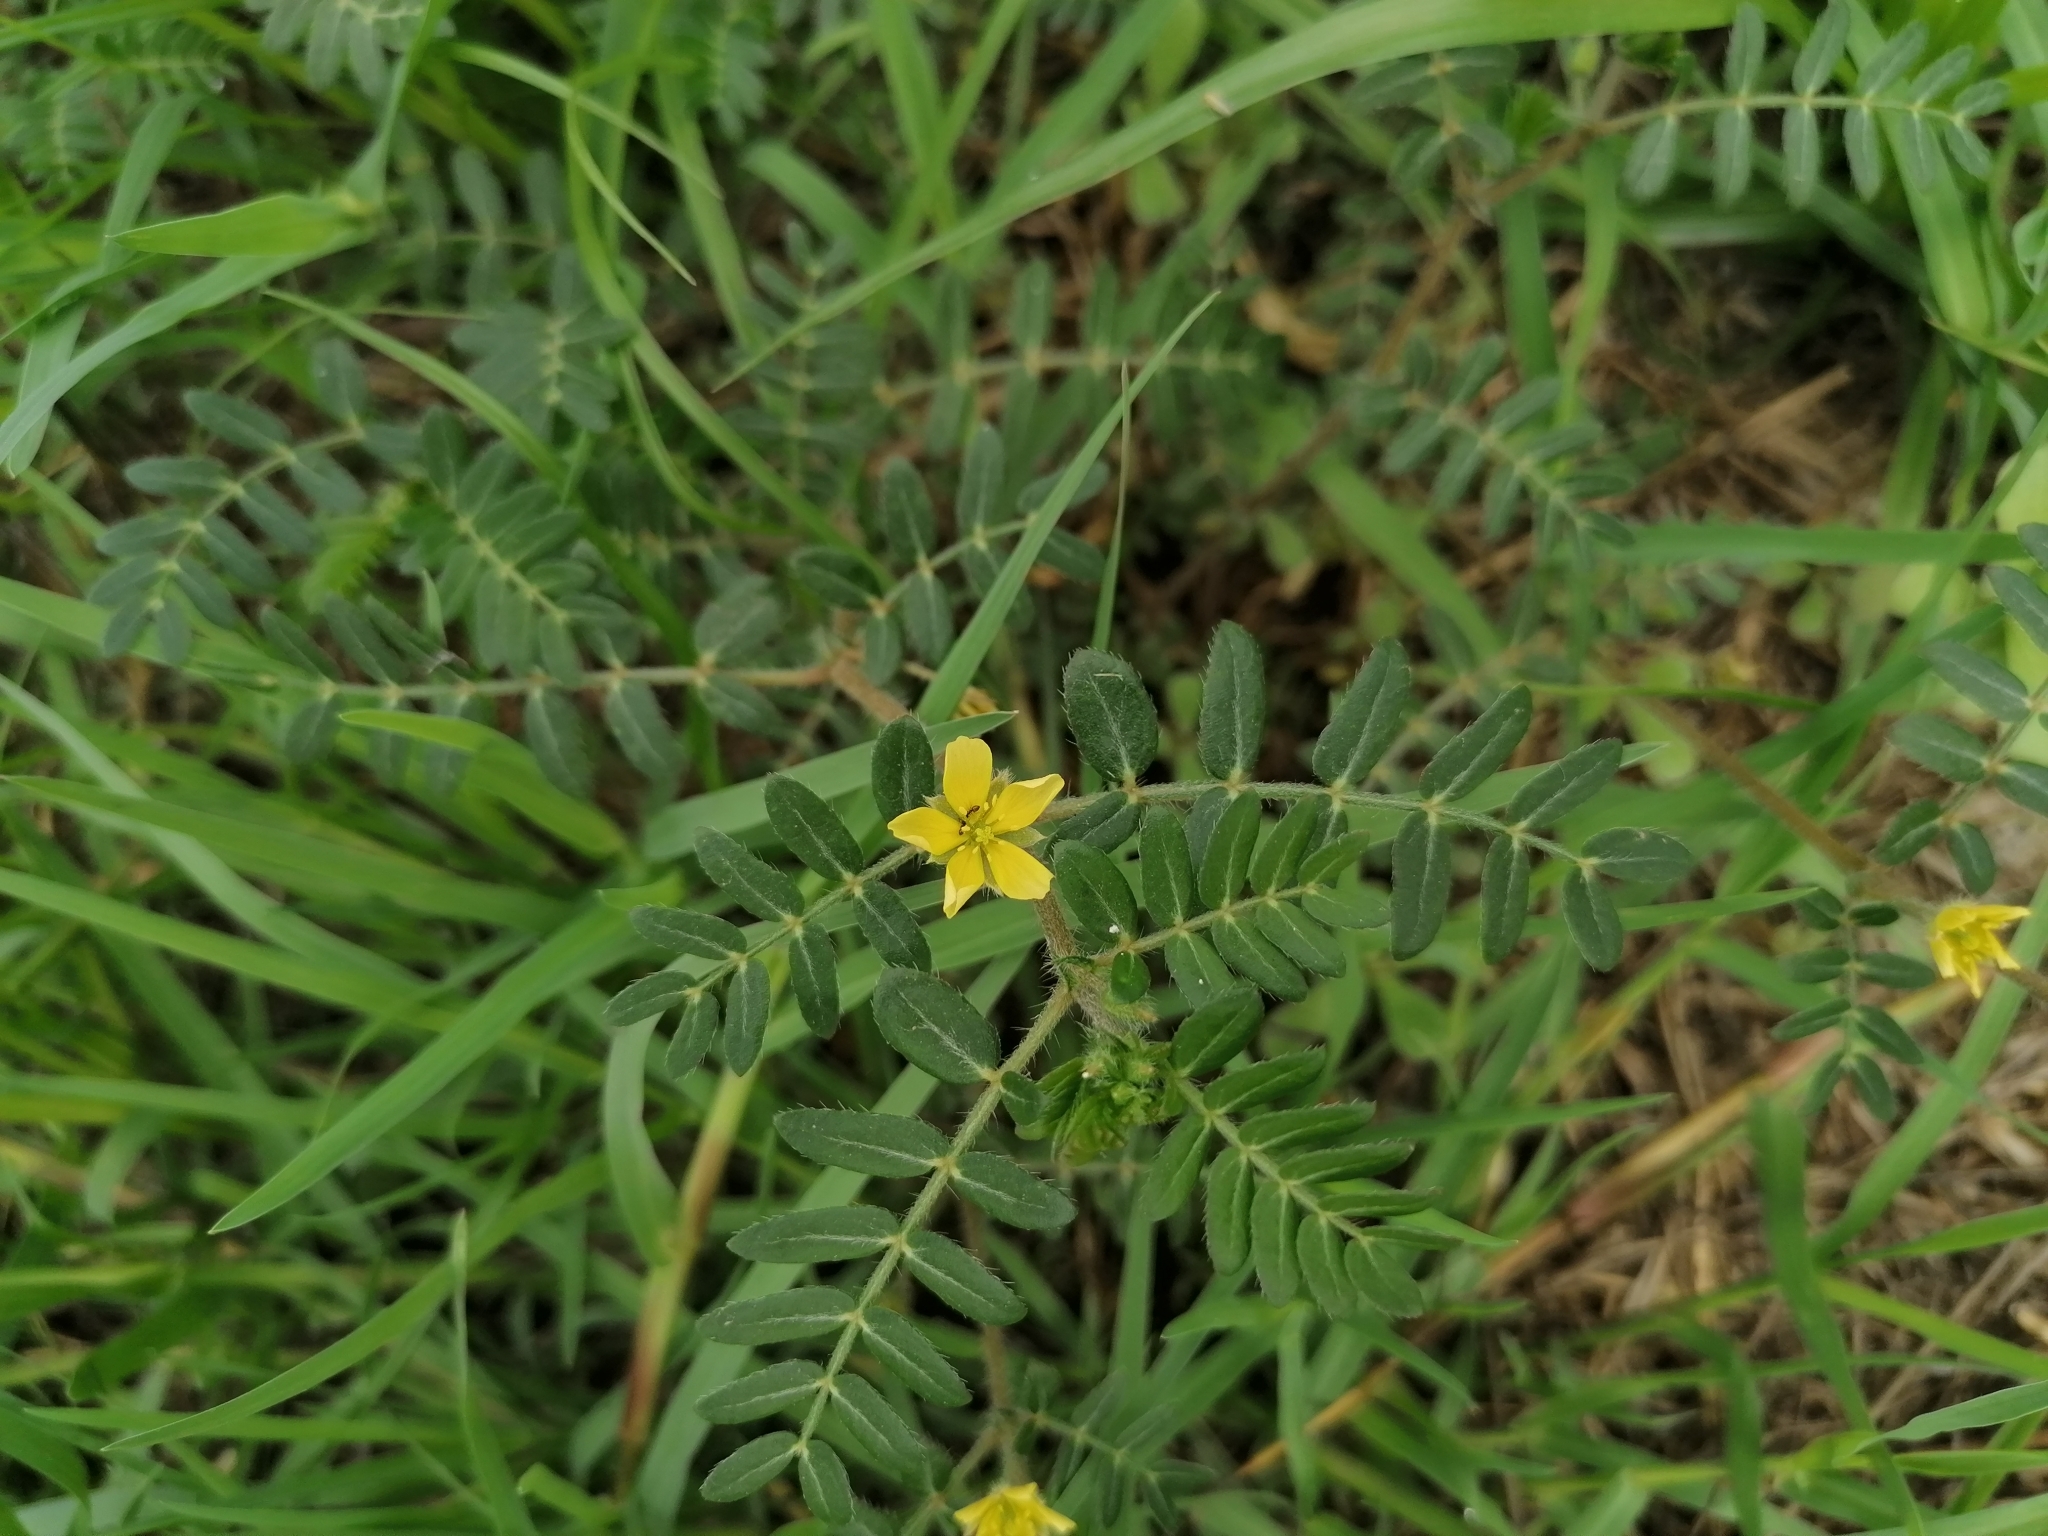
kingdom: Plantae
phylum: Tracheophyta
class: Magnoliopsida
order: Zygophyllales
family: Zygophyllaceae
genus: Tribulus
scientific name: Tribulus terrestris
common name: Puncturevine
